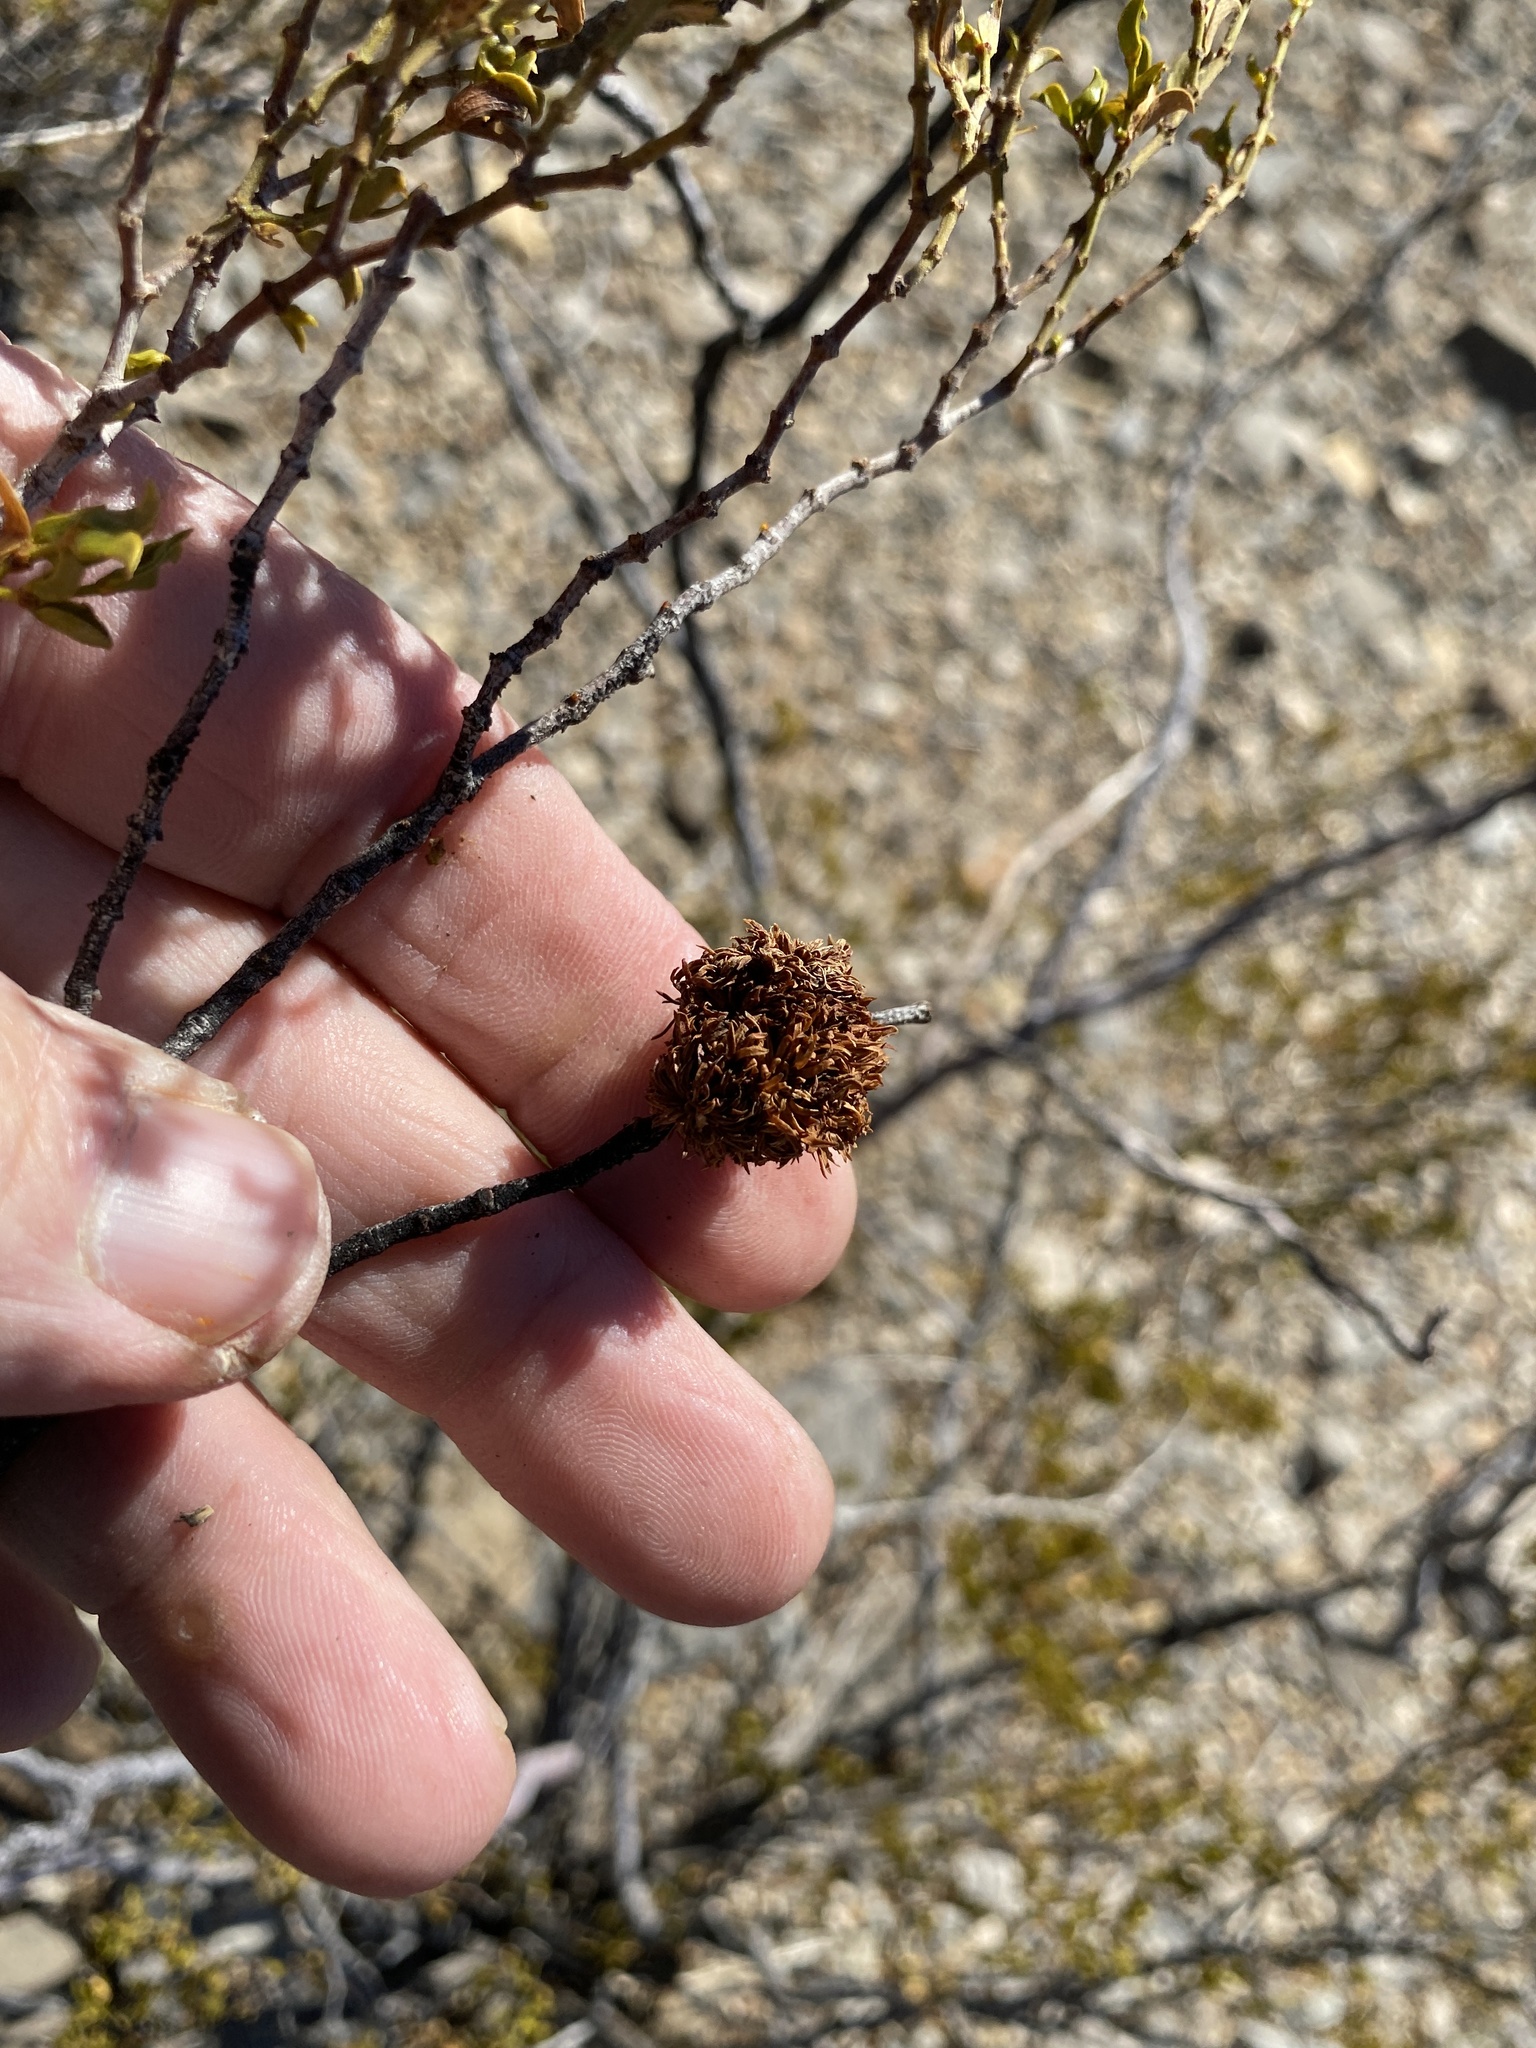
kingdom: Animalia
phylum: Arthropoda
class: Insecta
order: Diptera
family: Cecidomyiidae
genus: Asphondylia
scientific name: Asphondylia auripila
